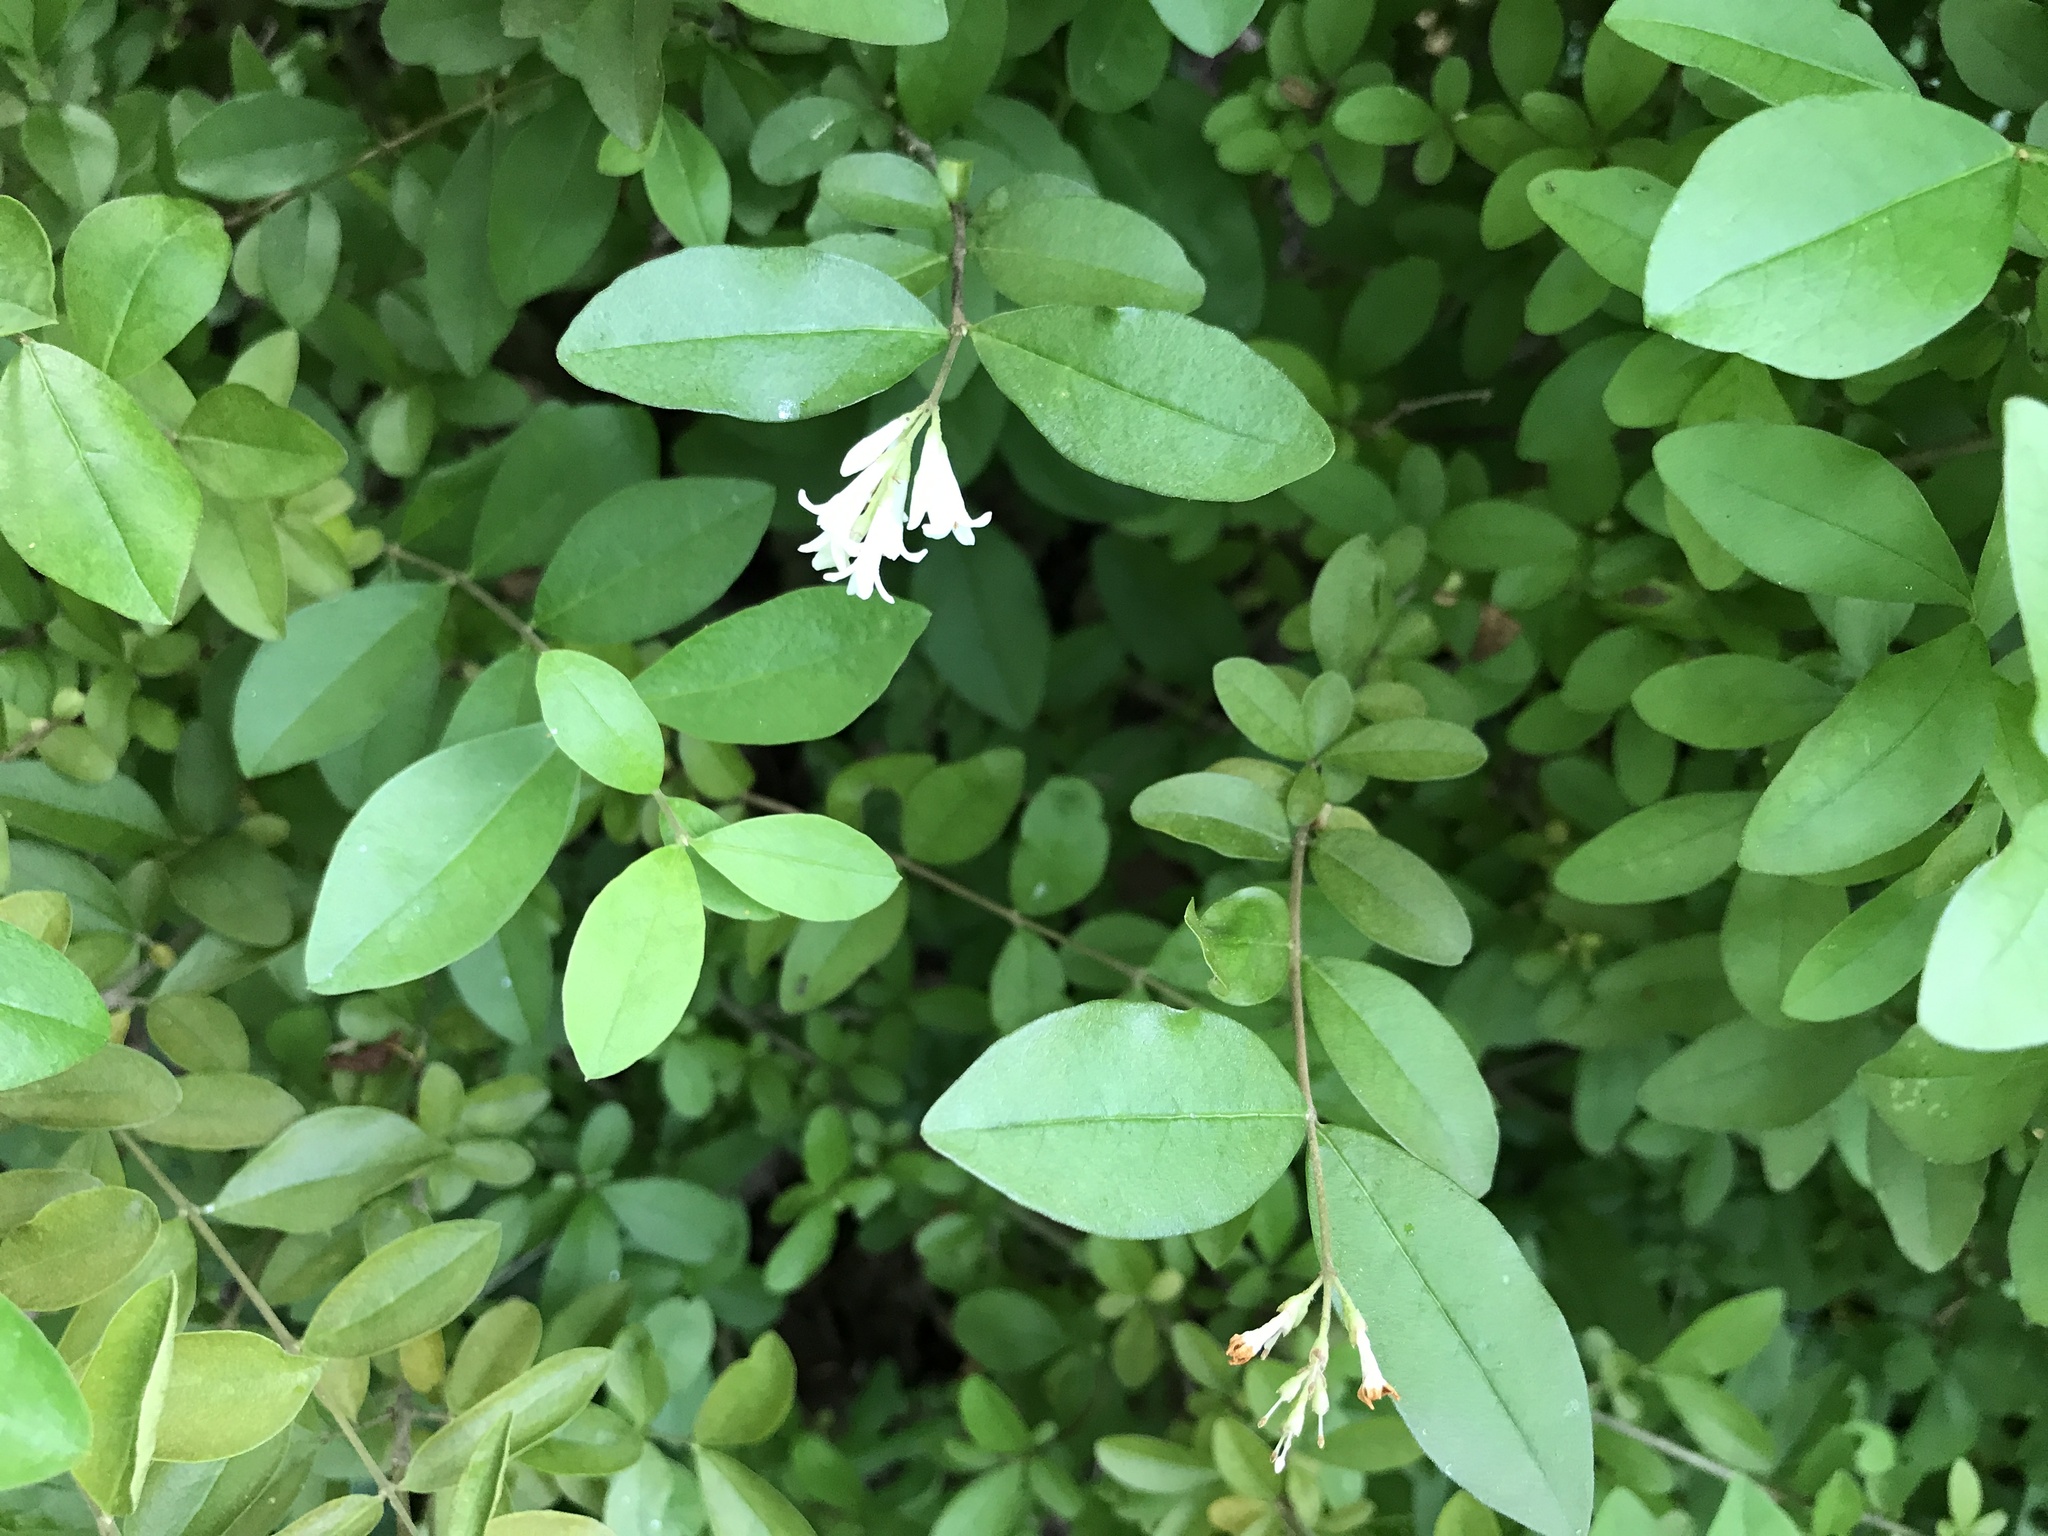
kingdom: Plantae
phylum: Tracheophyta
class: Magnoliopsida
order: Lamiales
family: Oleaceae
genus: Ligustrum
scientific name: Ligustrum obtusifolium
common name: Border privet
